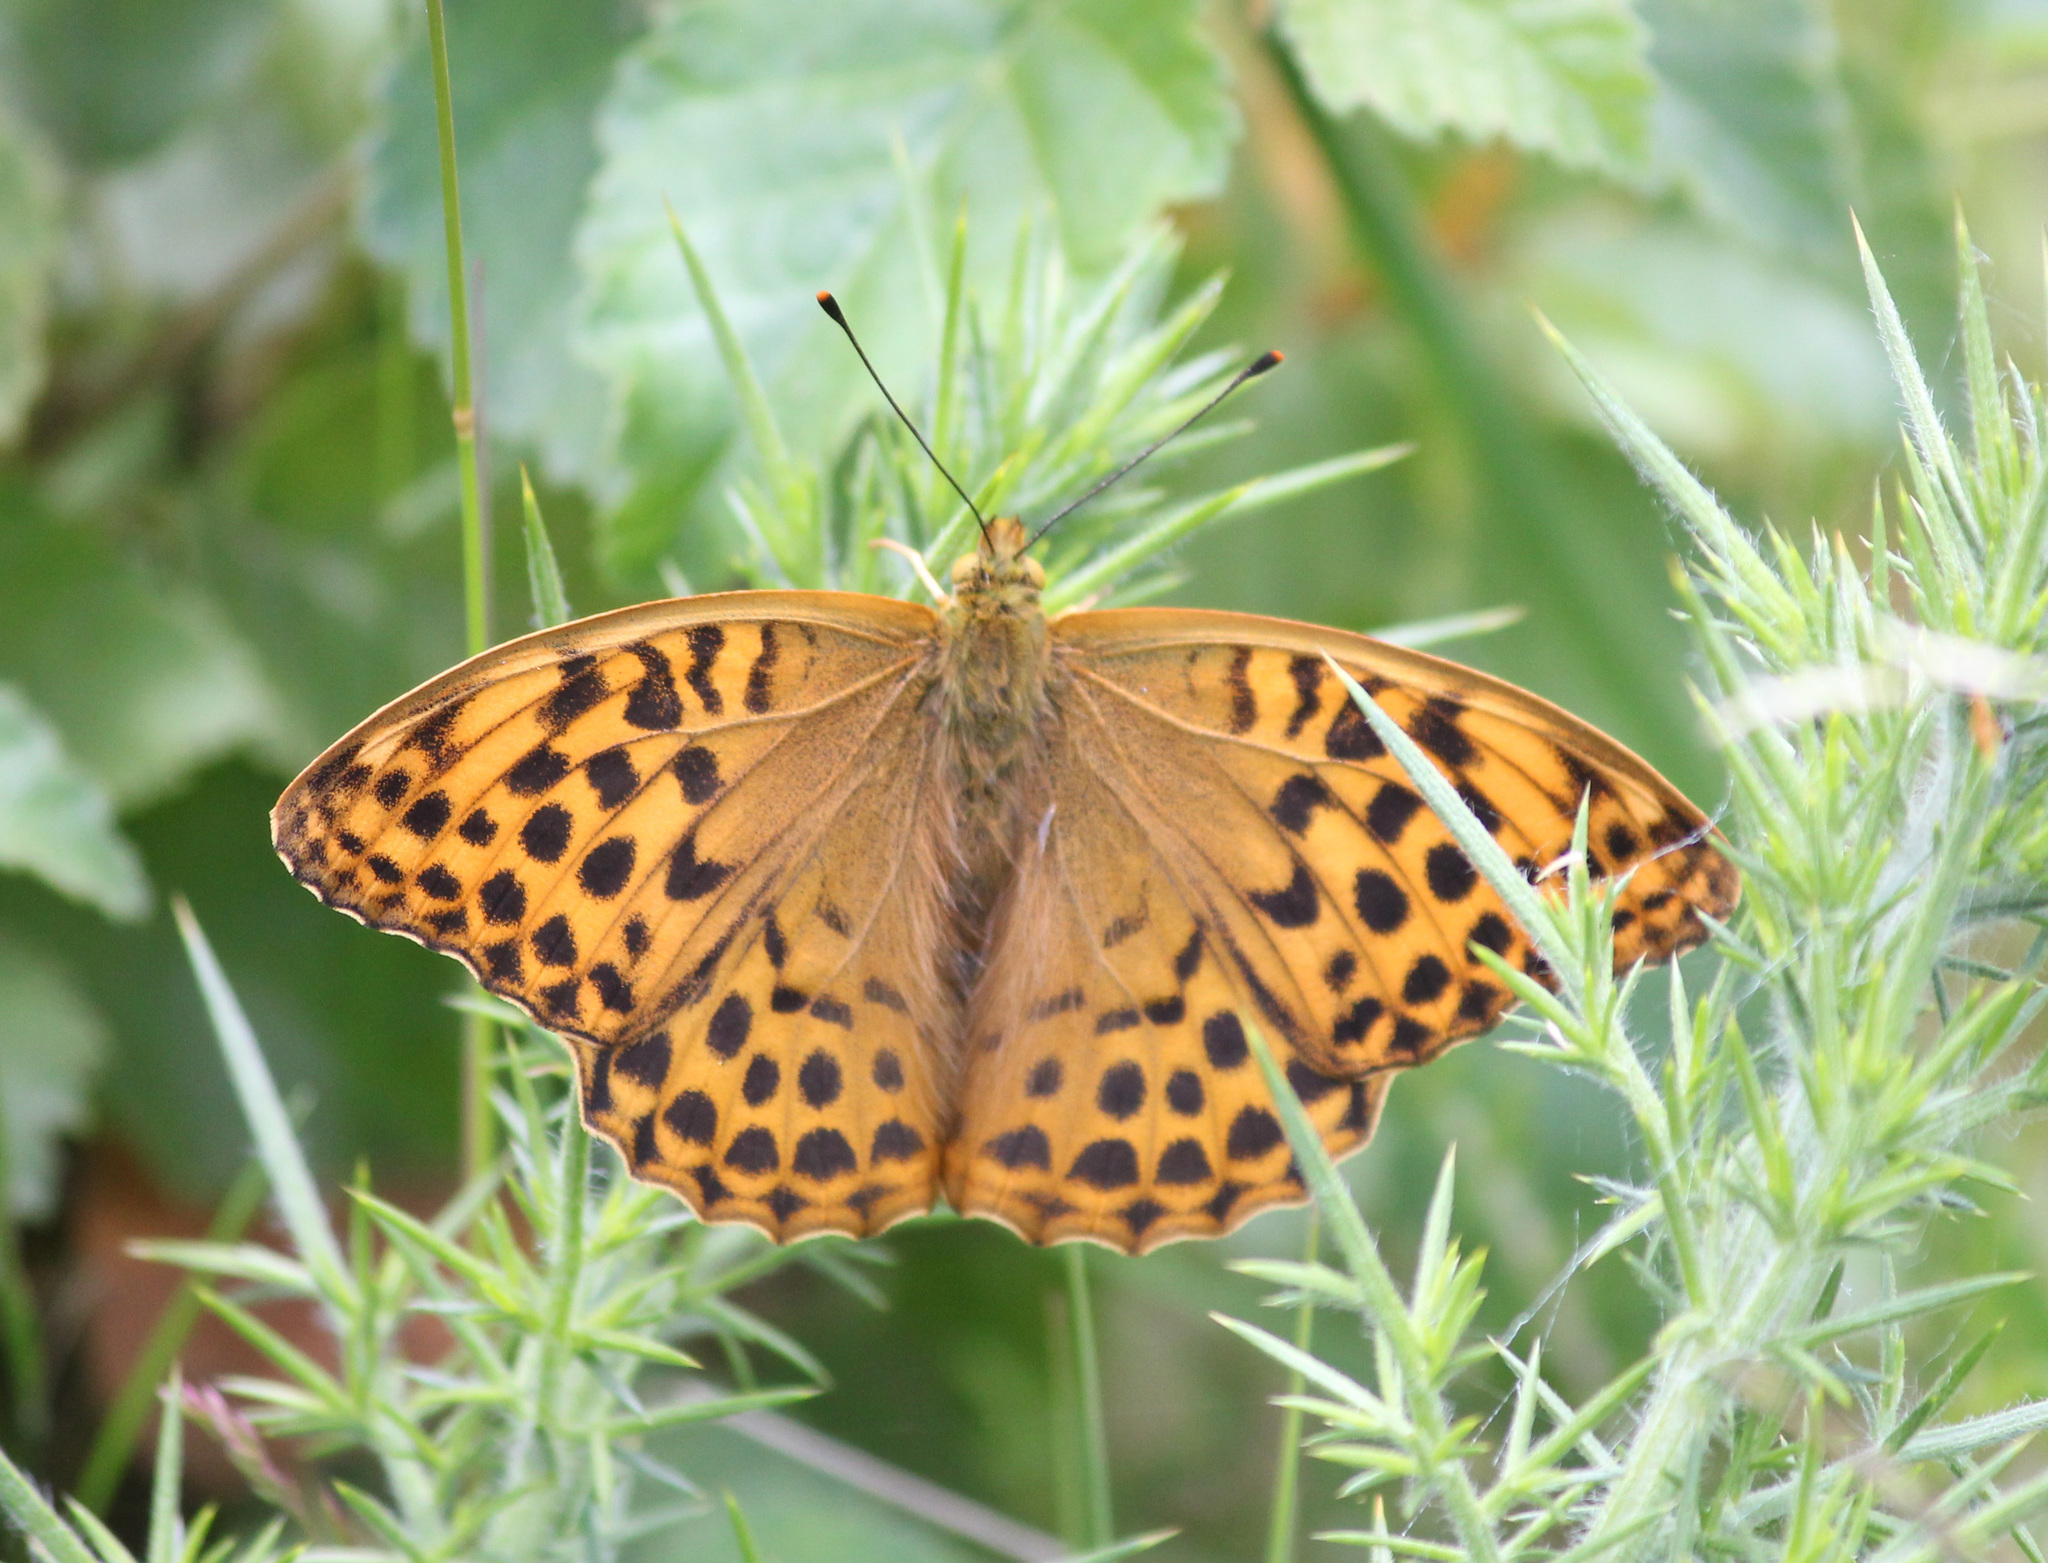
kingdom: Animalia
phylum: Arthropoda
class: Insecta
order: Lepidoptera
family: Nymphalidae
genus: Argynnis
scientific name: Argynnis paphia
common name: Silver-washed fritillary
